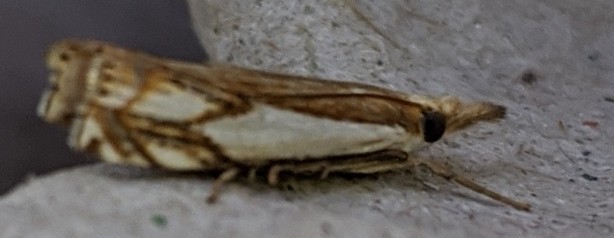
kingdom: Animalia
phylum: Arthropoda
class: Insecta
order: Lepidoptera
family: Crambidae
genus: Crambus
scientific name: Crambus agitatellus
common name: Double-banded grass-veneer
